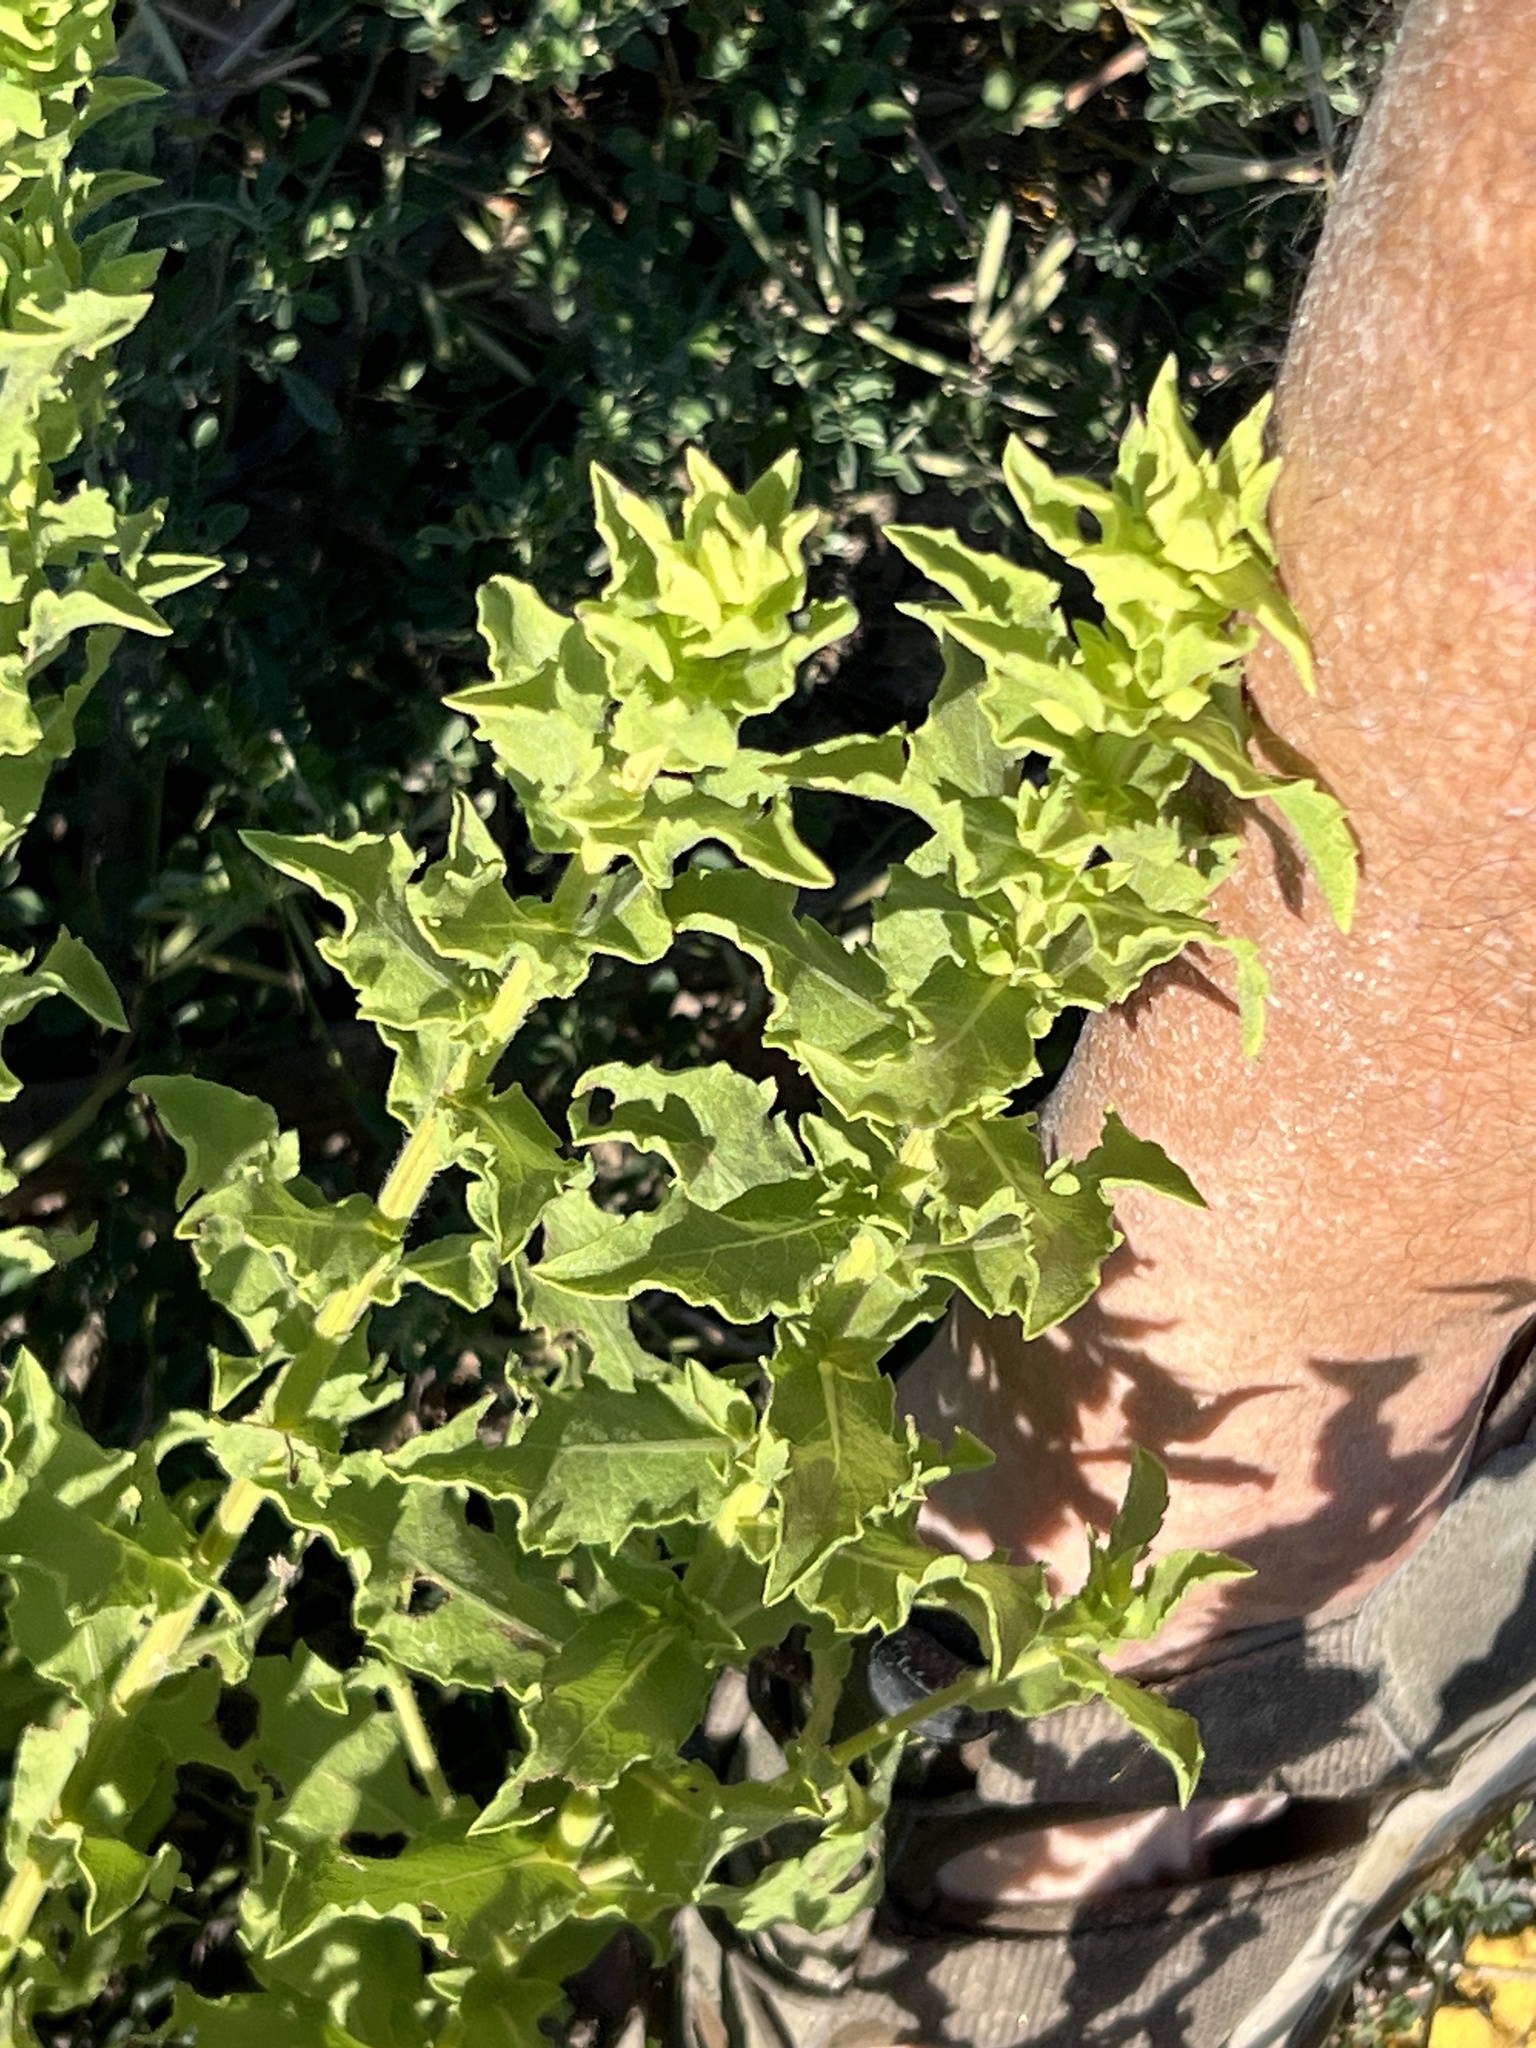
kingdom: Plantae
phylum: Tracheophyta
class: Magnoliopsida
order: Asterales
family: Asteraceae
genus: Heterotheca
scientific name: Heterotheca subaxillaris
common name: Camphorweed
